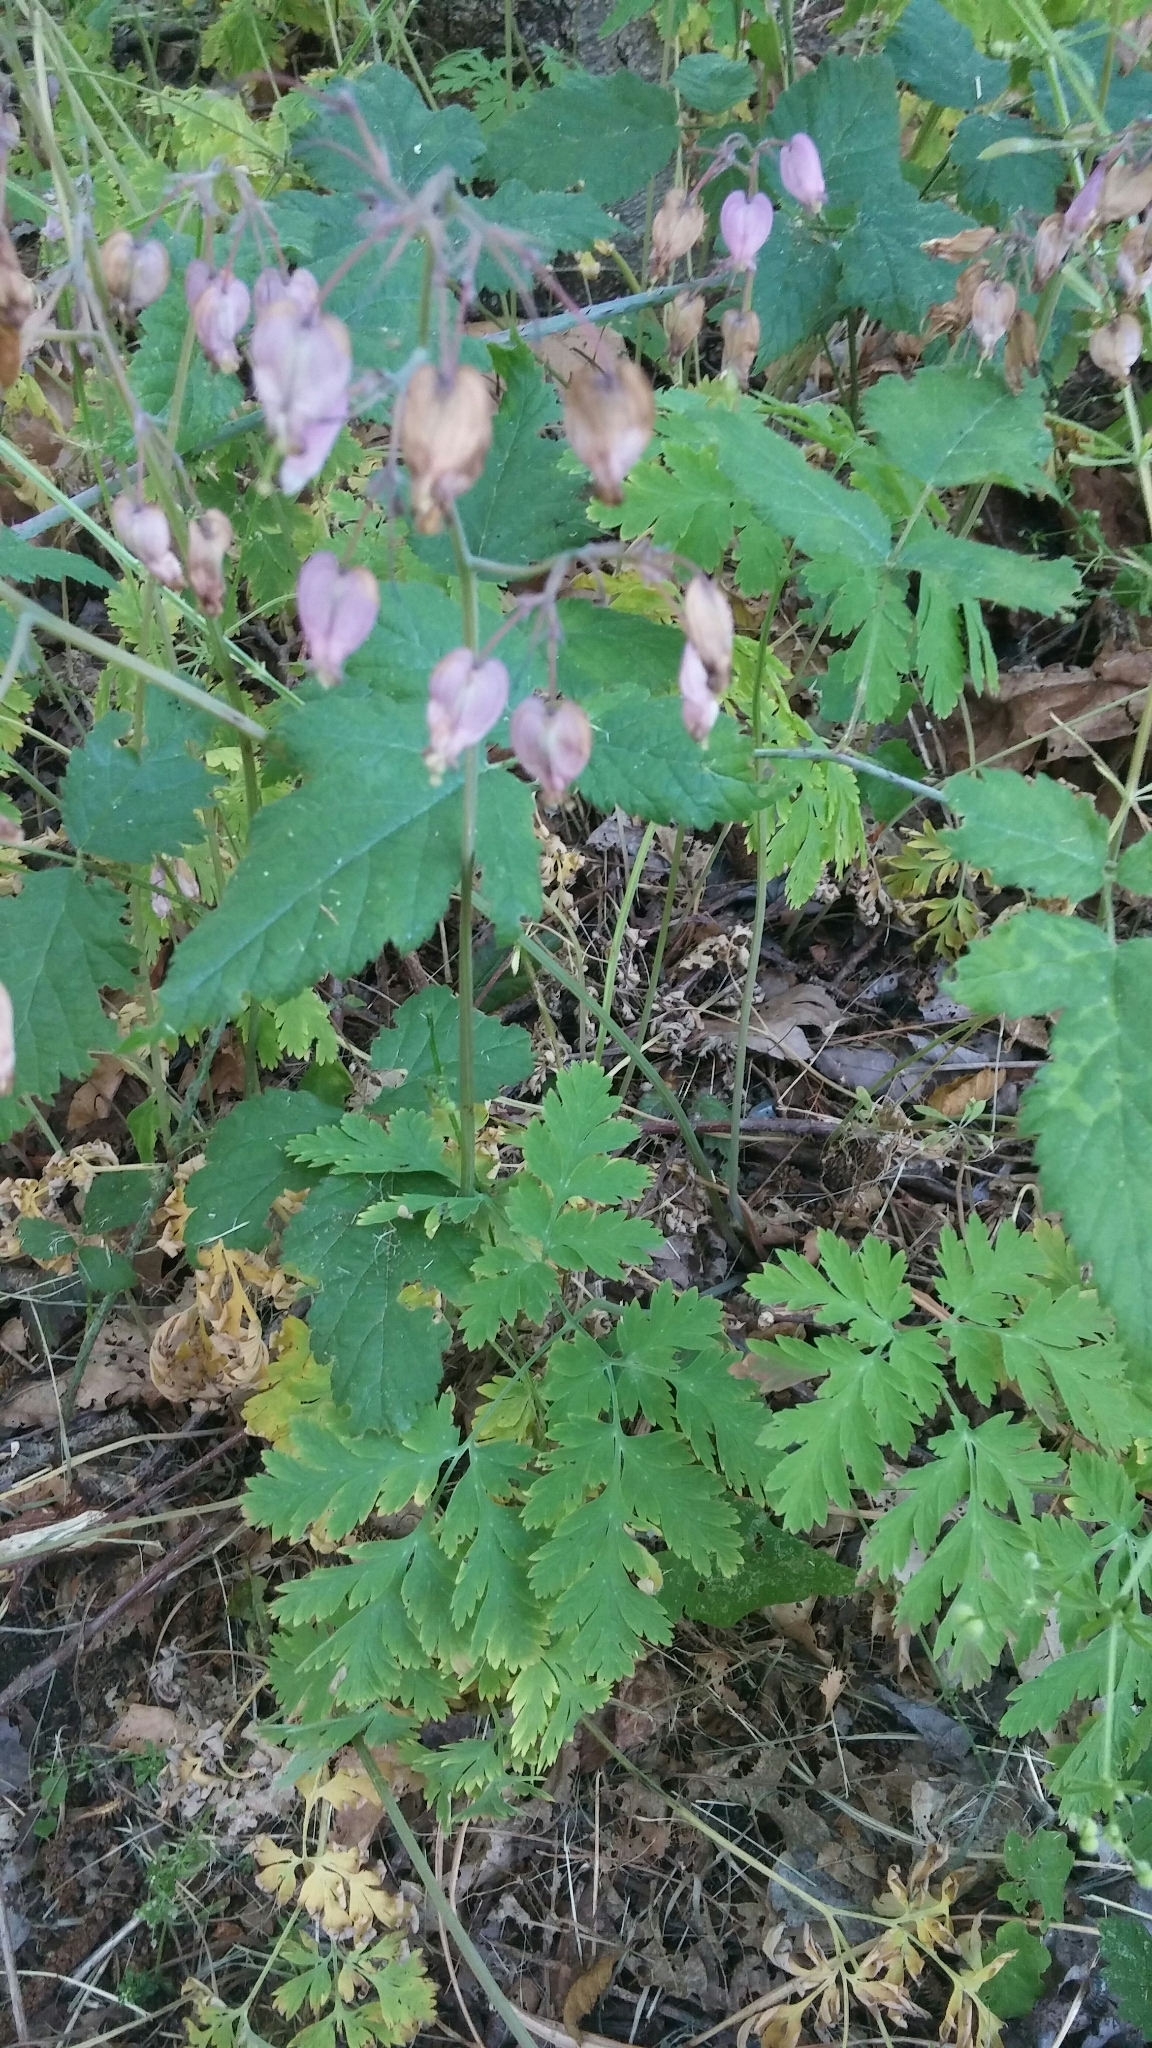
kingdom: Plantae
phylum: Tracheophyta
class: Magnoliopsida
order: Ranunculales
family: Papaveraceae
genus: Dicentra
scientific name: Dicentra formosa
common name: Bleeding-heart
